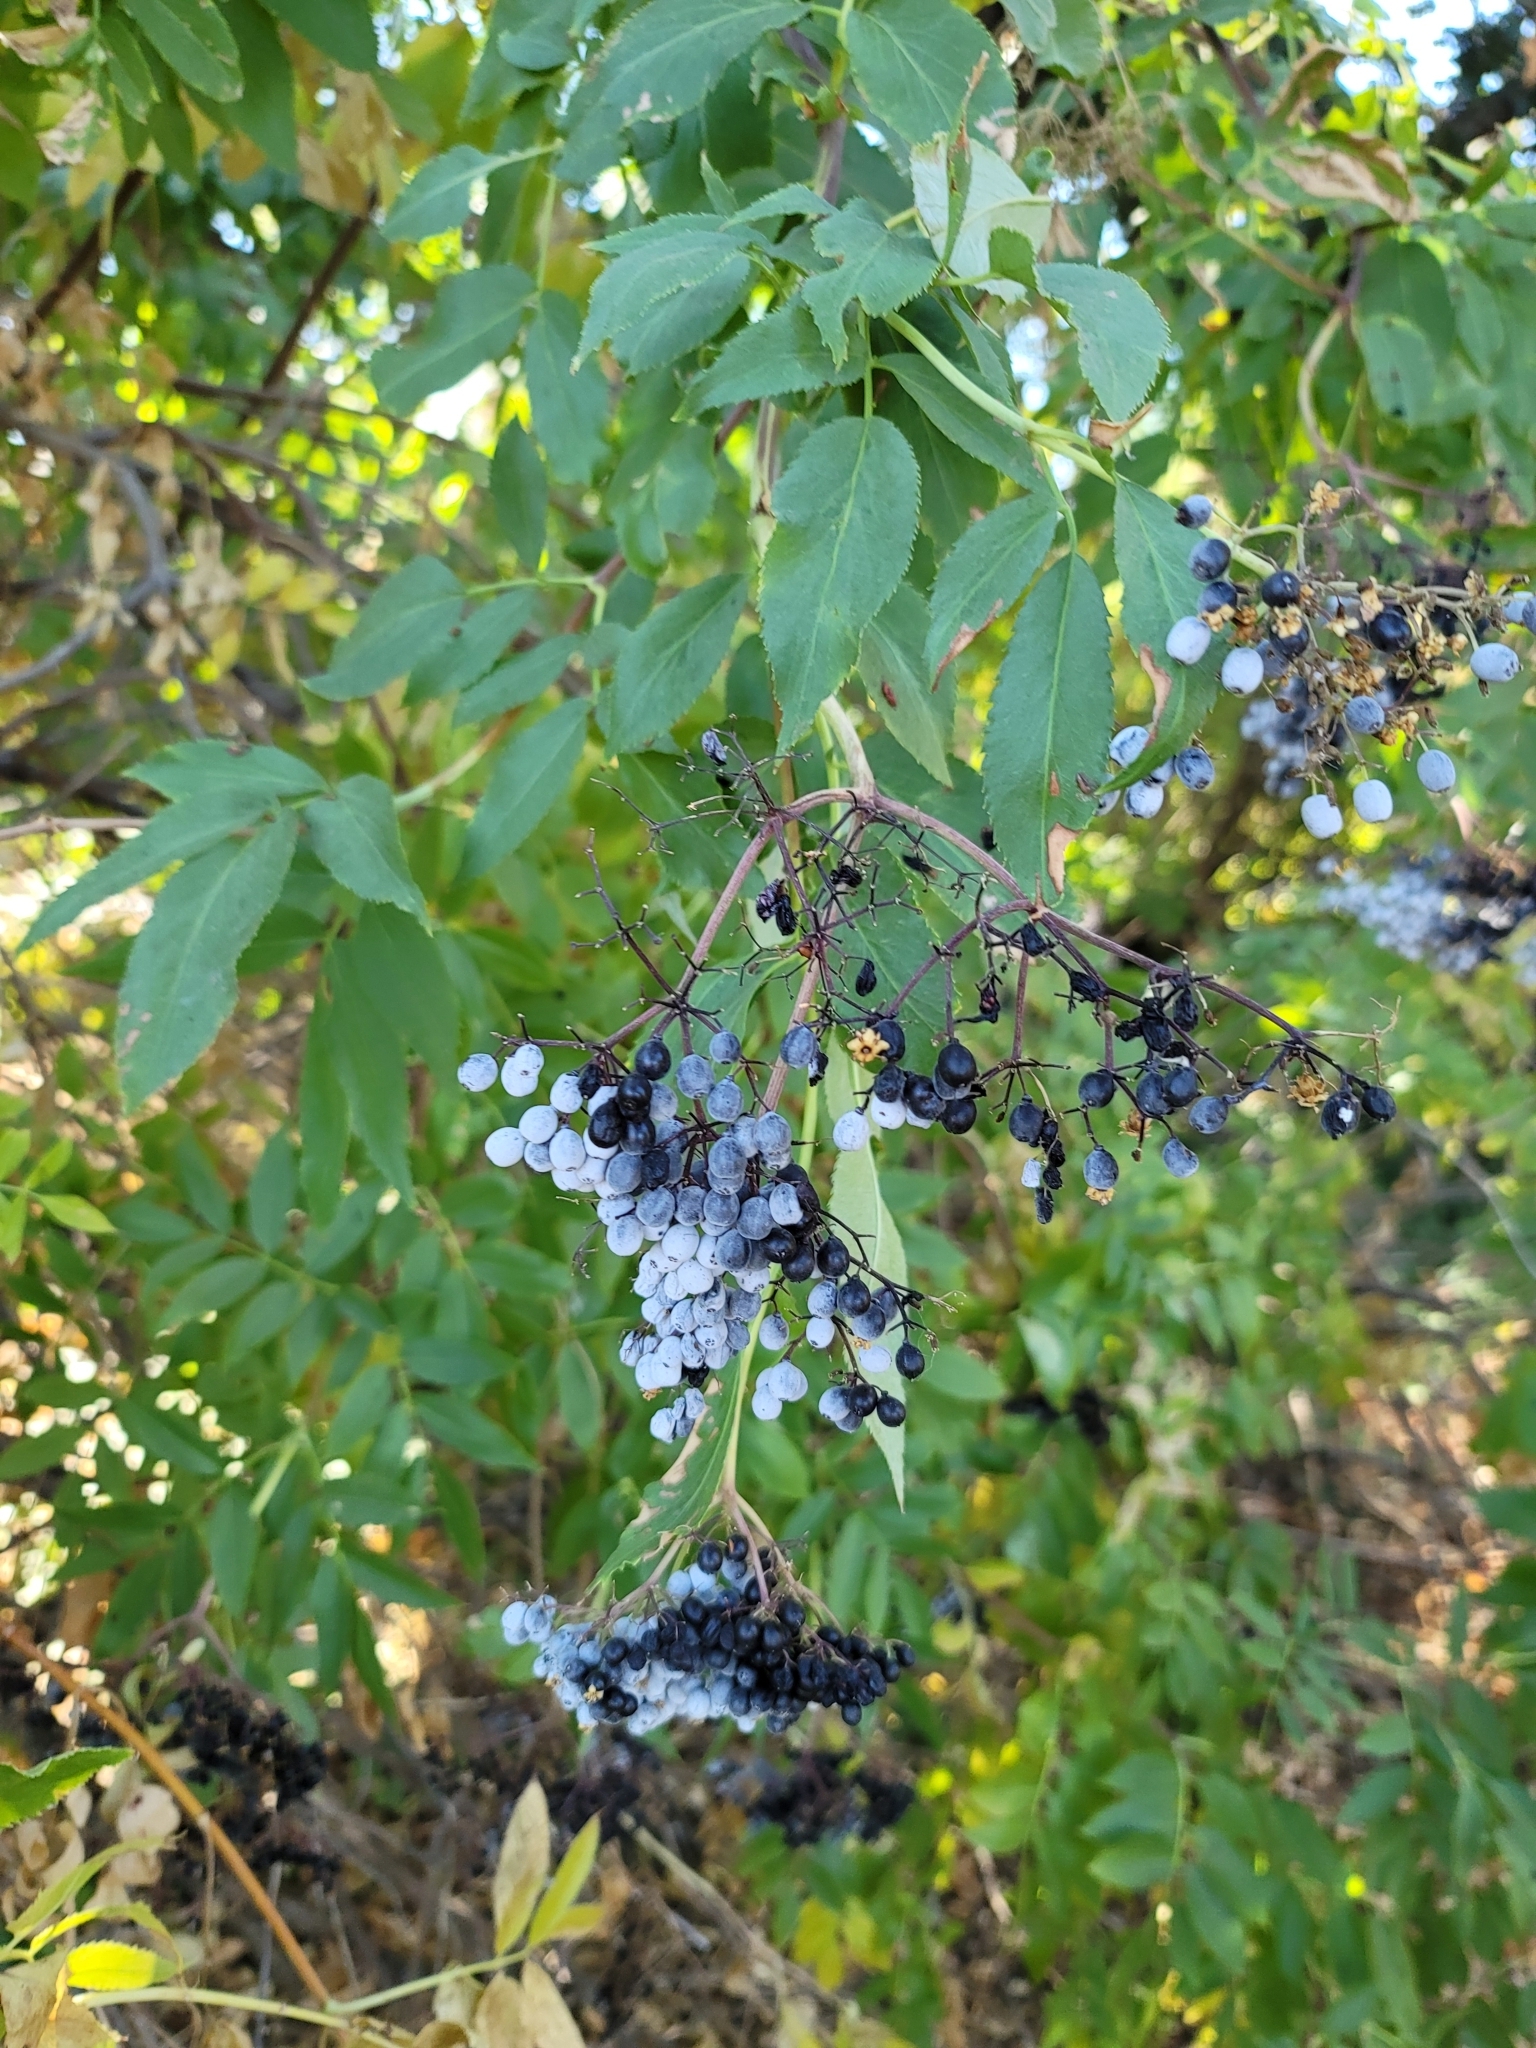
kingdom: Plantae
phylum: Tracheophyta
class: Magnoliopsida
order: Dipsacales
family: Viburnaceae
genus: Sambucus
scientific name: Sambucus cerulea
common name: Blue elder
